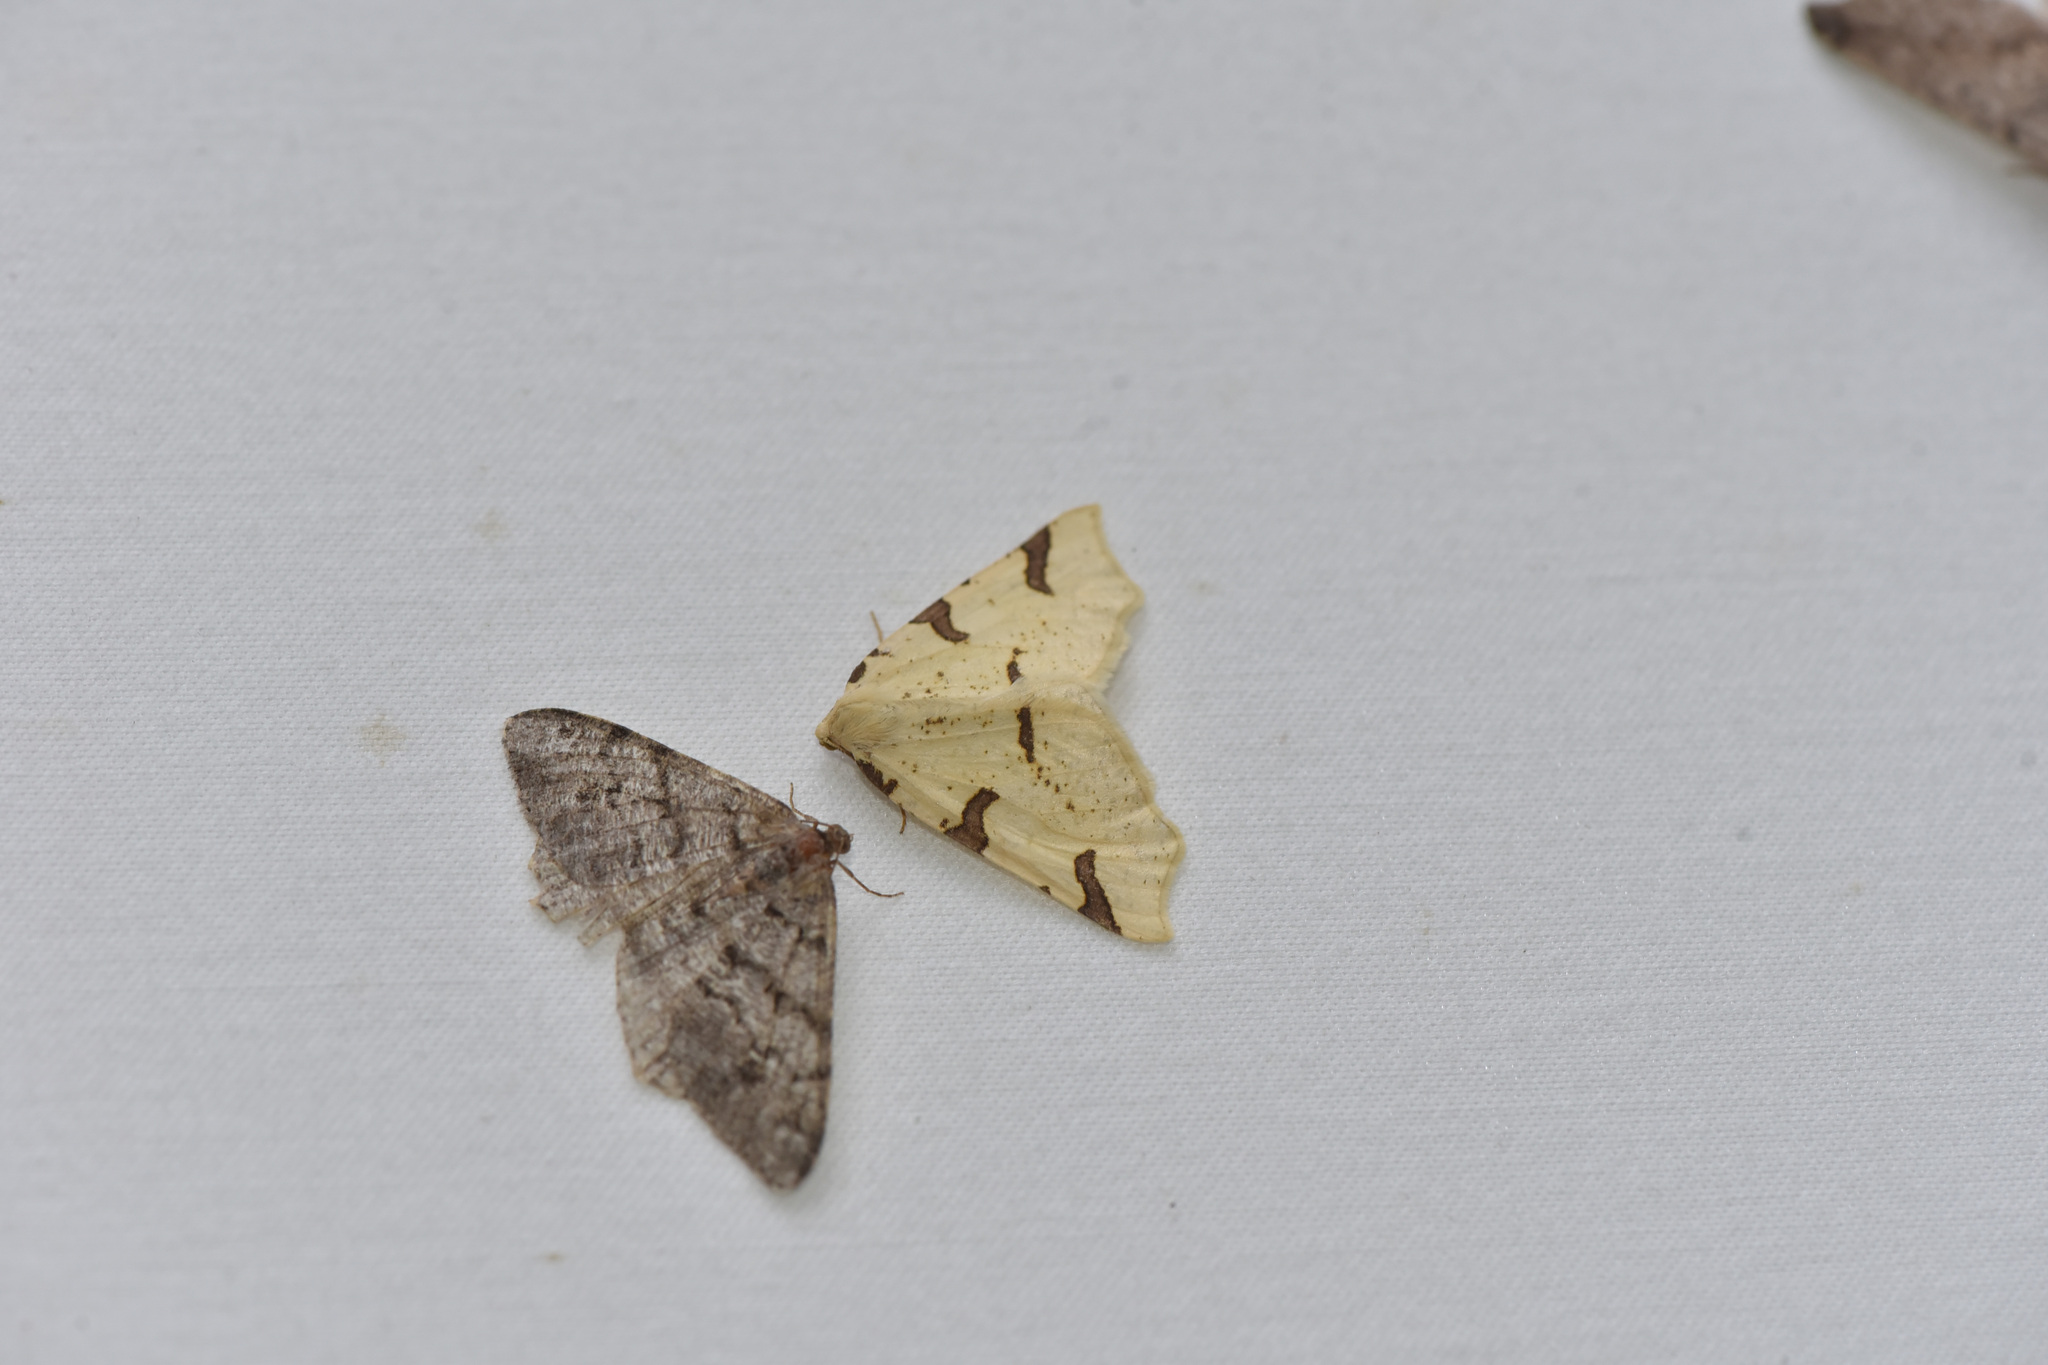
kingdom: Animalia
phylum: Arthropoda
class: Insecta
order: Lepidoptera
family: Geometridae
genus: Neoterpes
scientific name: Neoterpes trianguliferata
